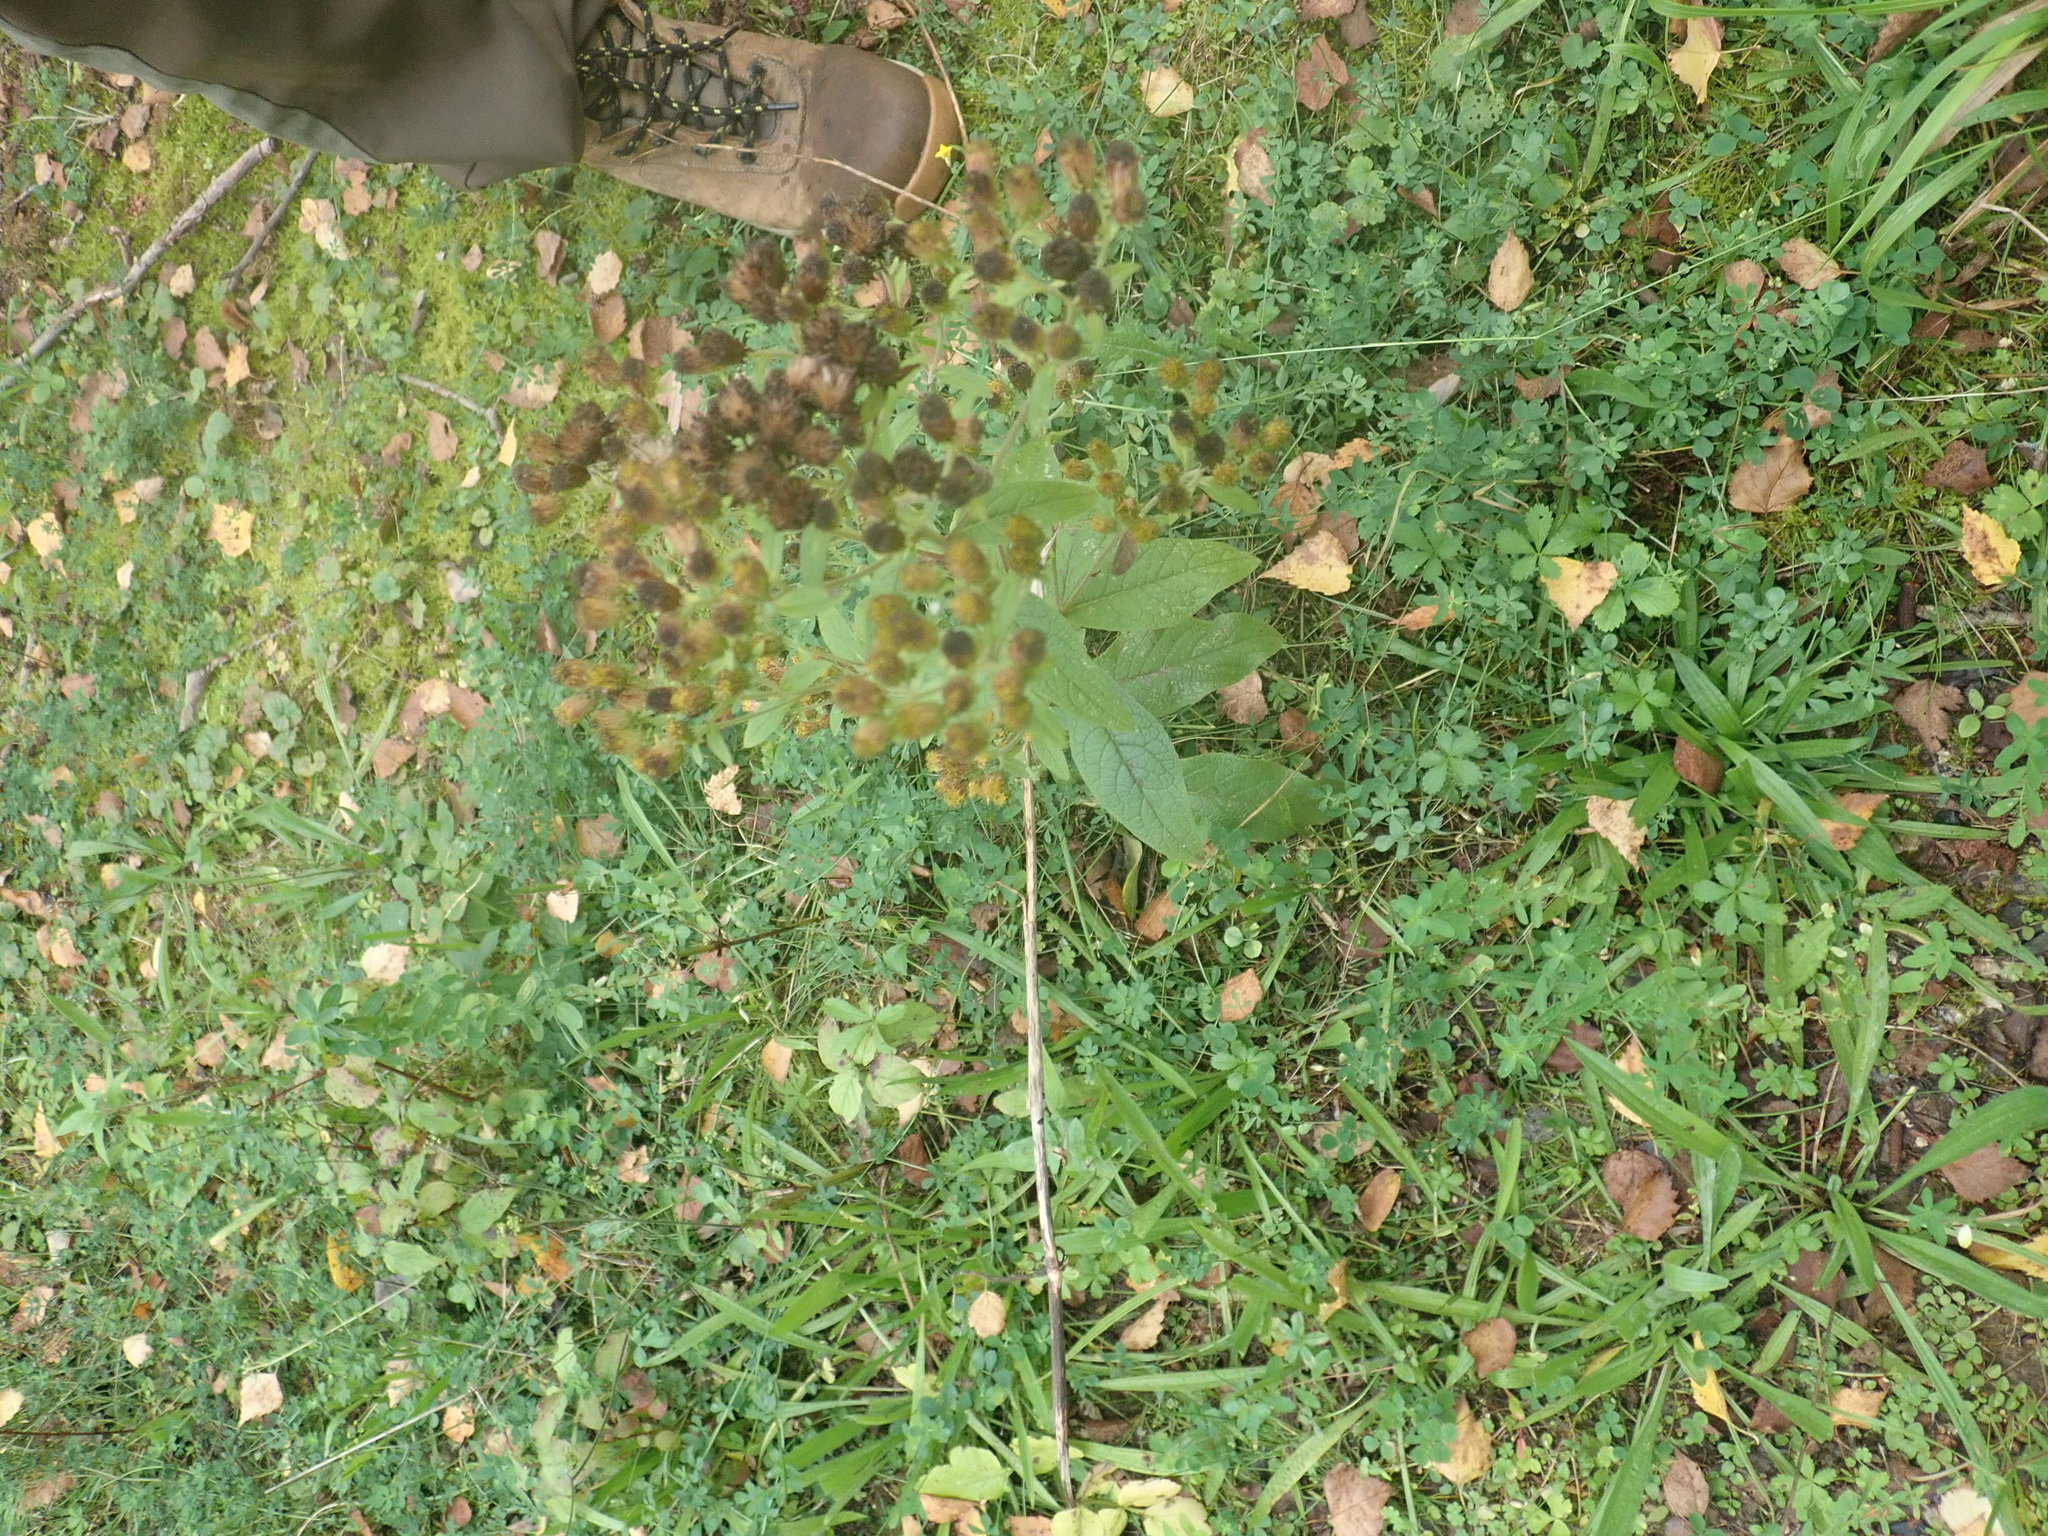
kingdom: Plantae
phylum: Tracheophyta
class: Magnoliopsida
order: Asterales
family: Asteraceae
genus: Pentanema
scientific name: Pentanema squarrosum
